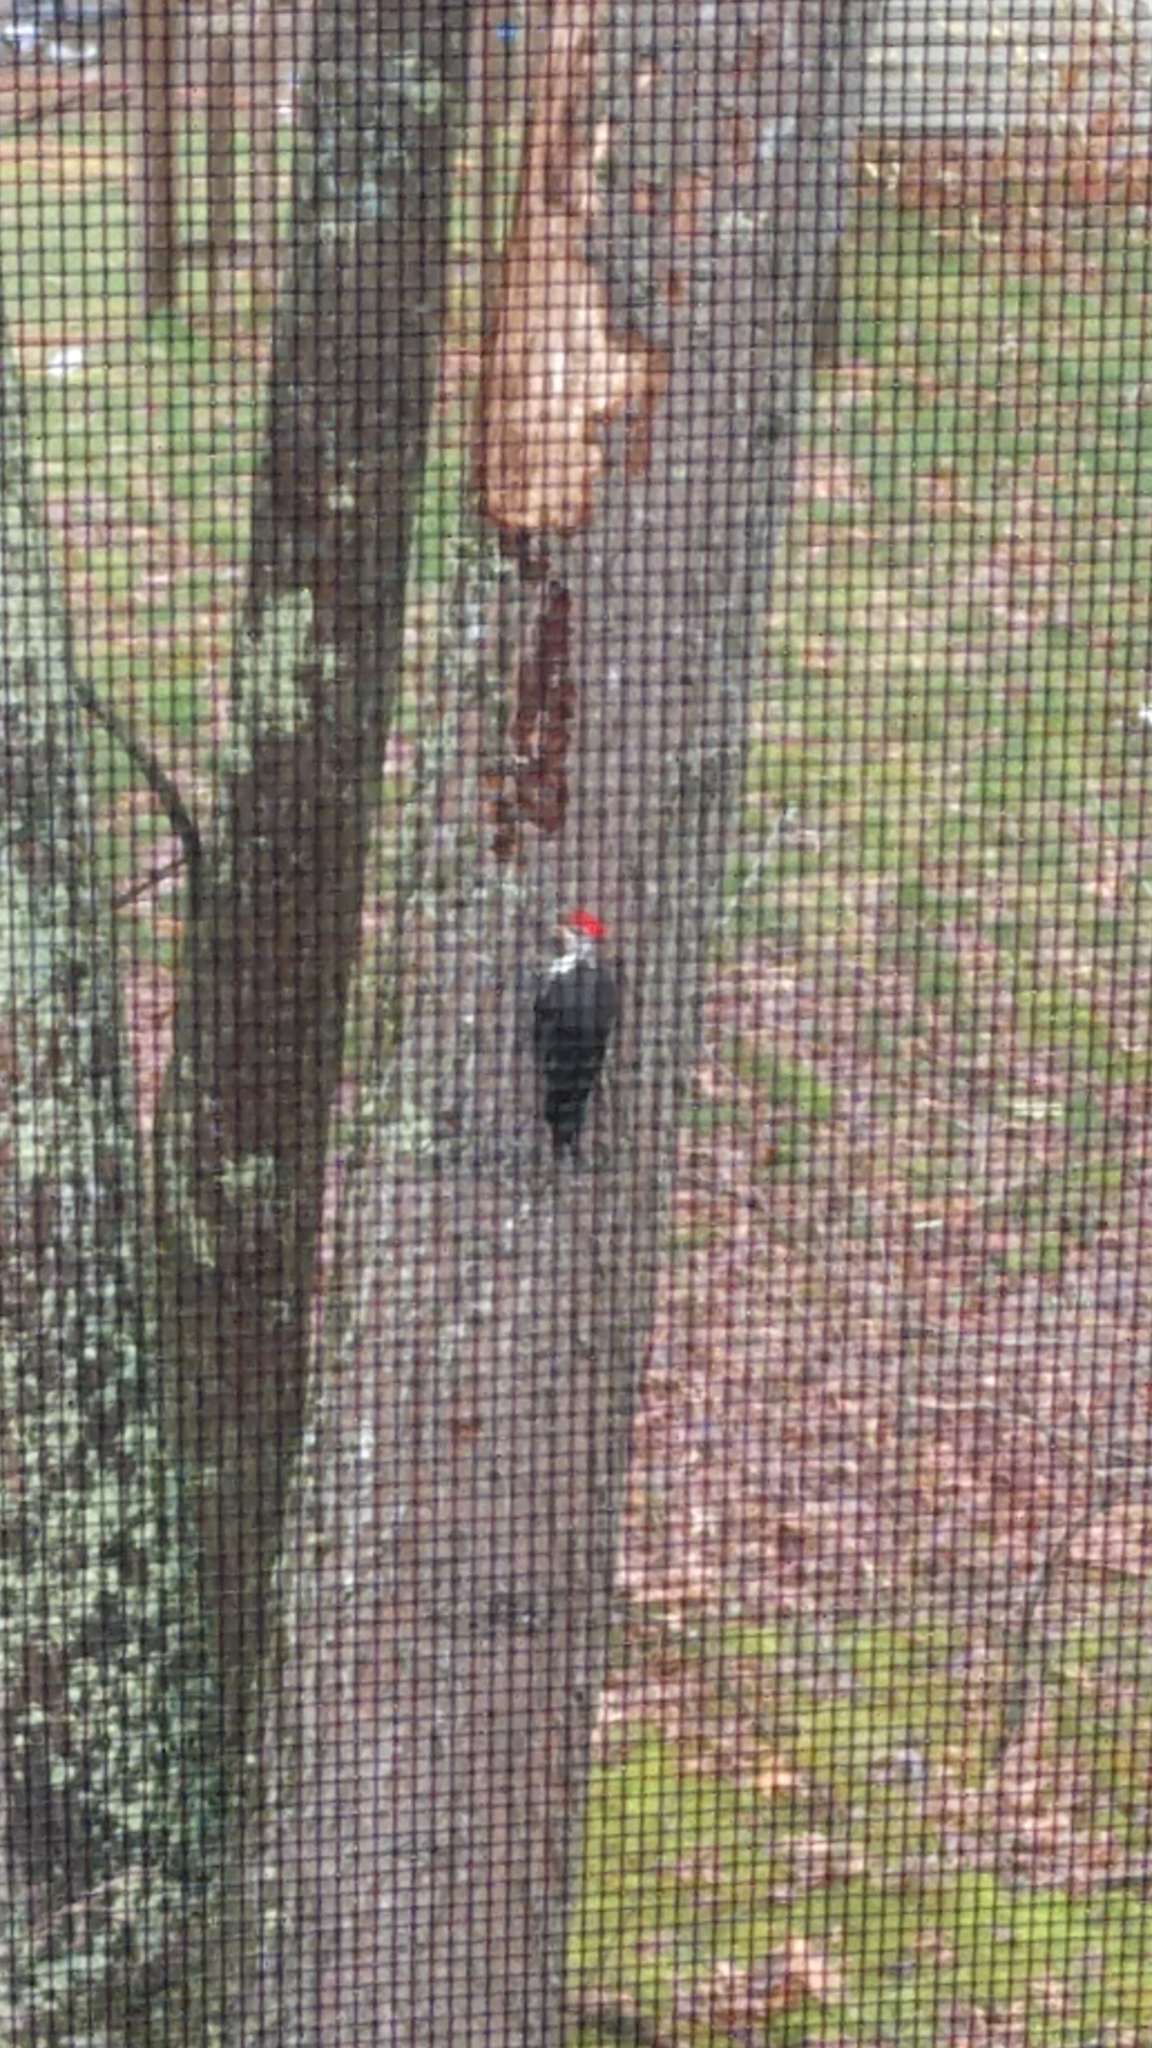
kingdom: Animalia
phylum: Chordata
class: Aves
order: Piciformes
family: Picidae
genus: Dryocopus
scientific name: Dryocopus pileatus
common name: Pileated woodpecker
